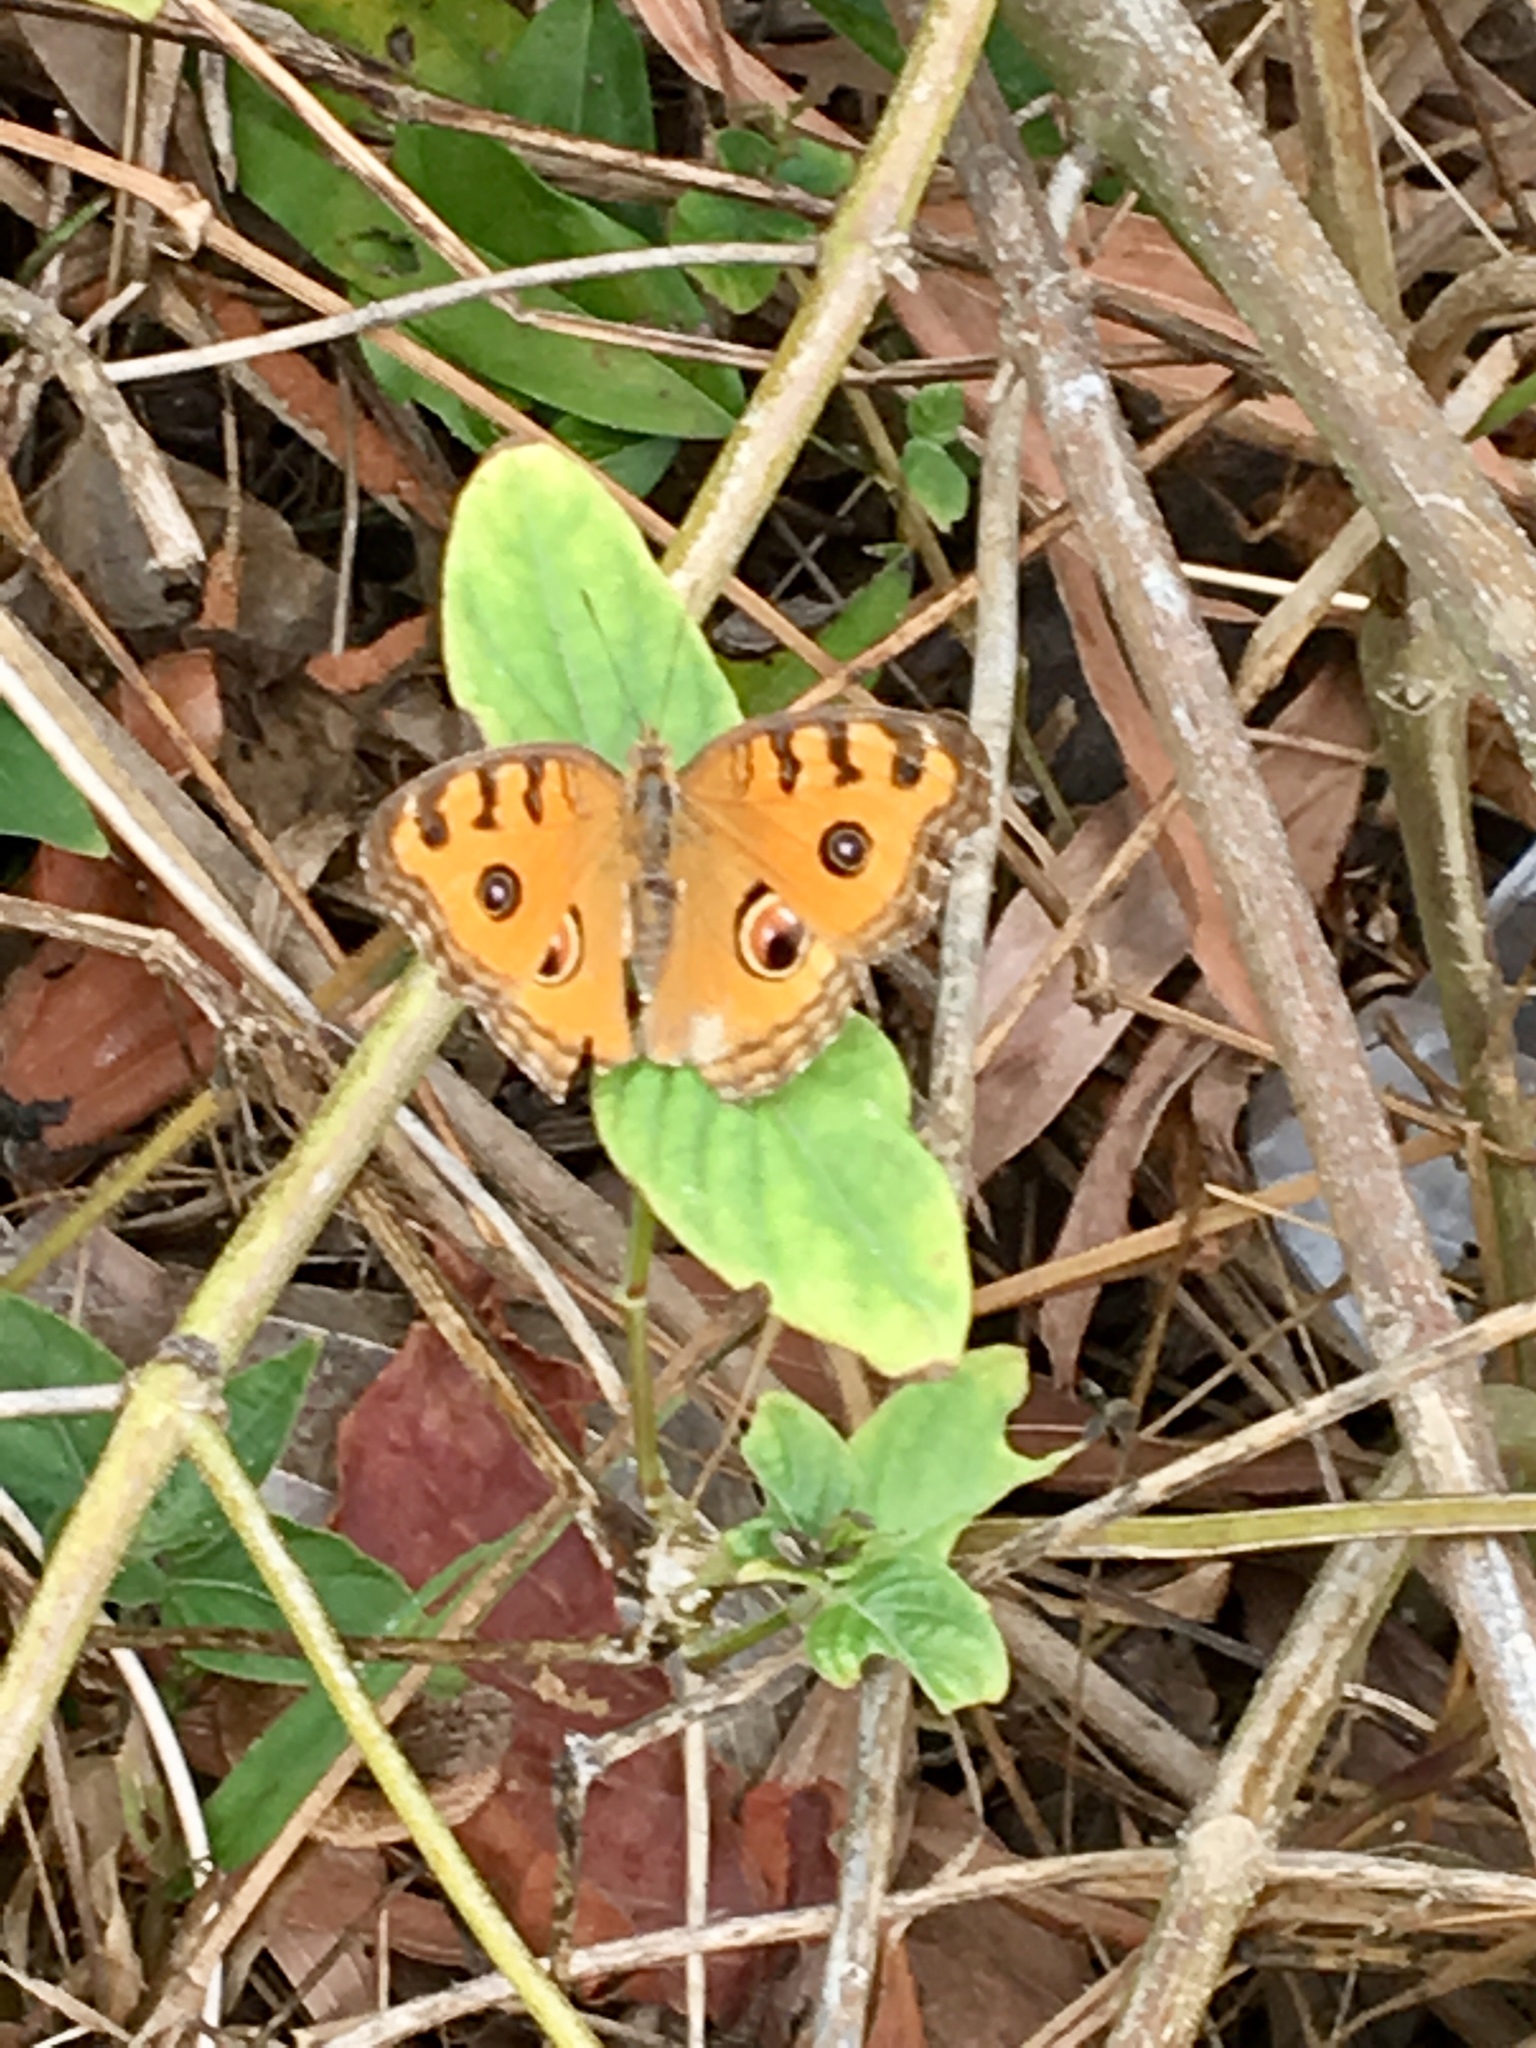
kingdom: Animalia
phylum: Arthropoda
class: Insecta
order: Lepidoptera
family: Nymphalidae
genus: Junonia
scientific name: Junonia almana
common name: Peacock pansy
